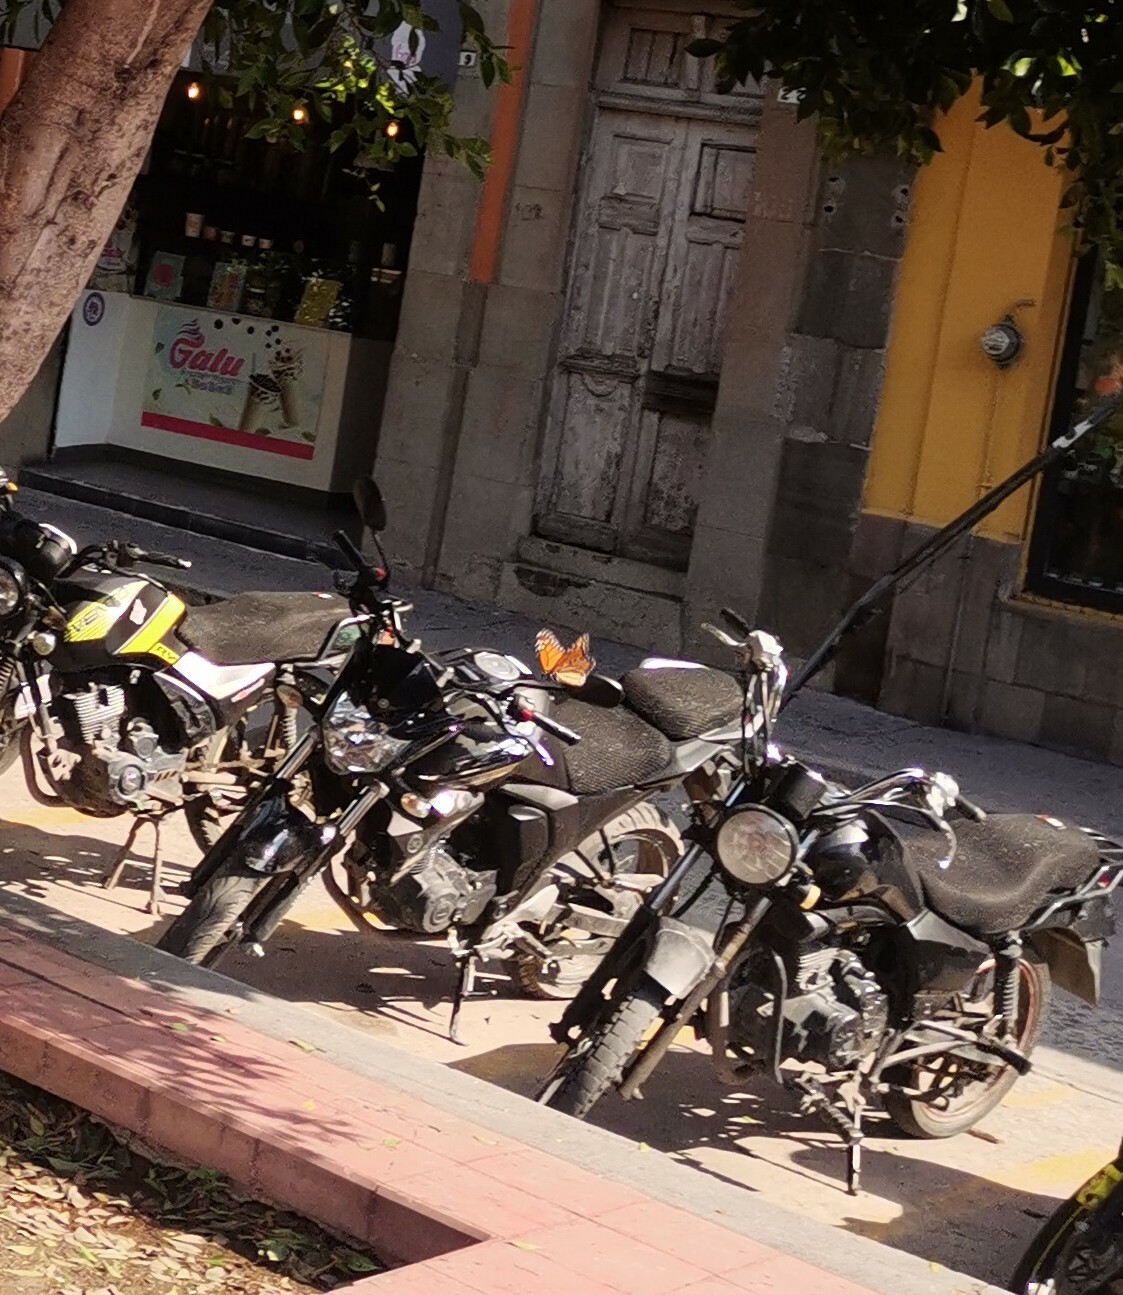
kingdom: Animalia
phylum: Arthropoda
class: Insecta
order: Lepidoptera
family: Nymphalidae
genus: Danaus
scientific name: Danaus plexippus
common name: Monarch
